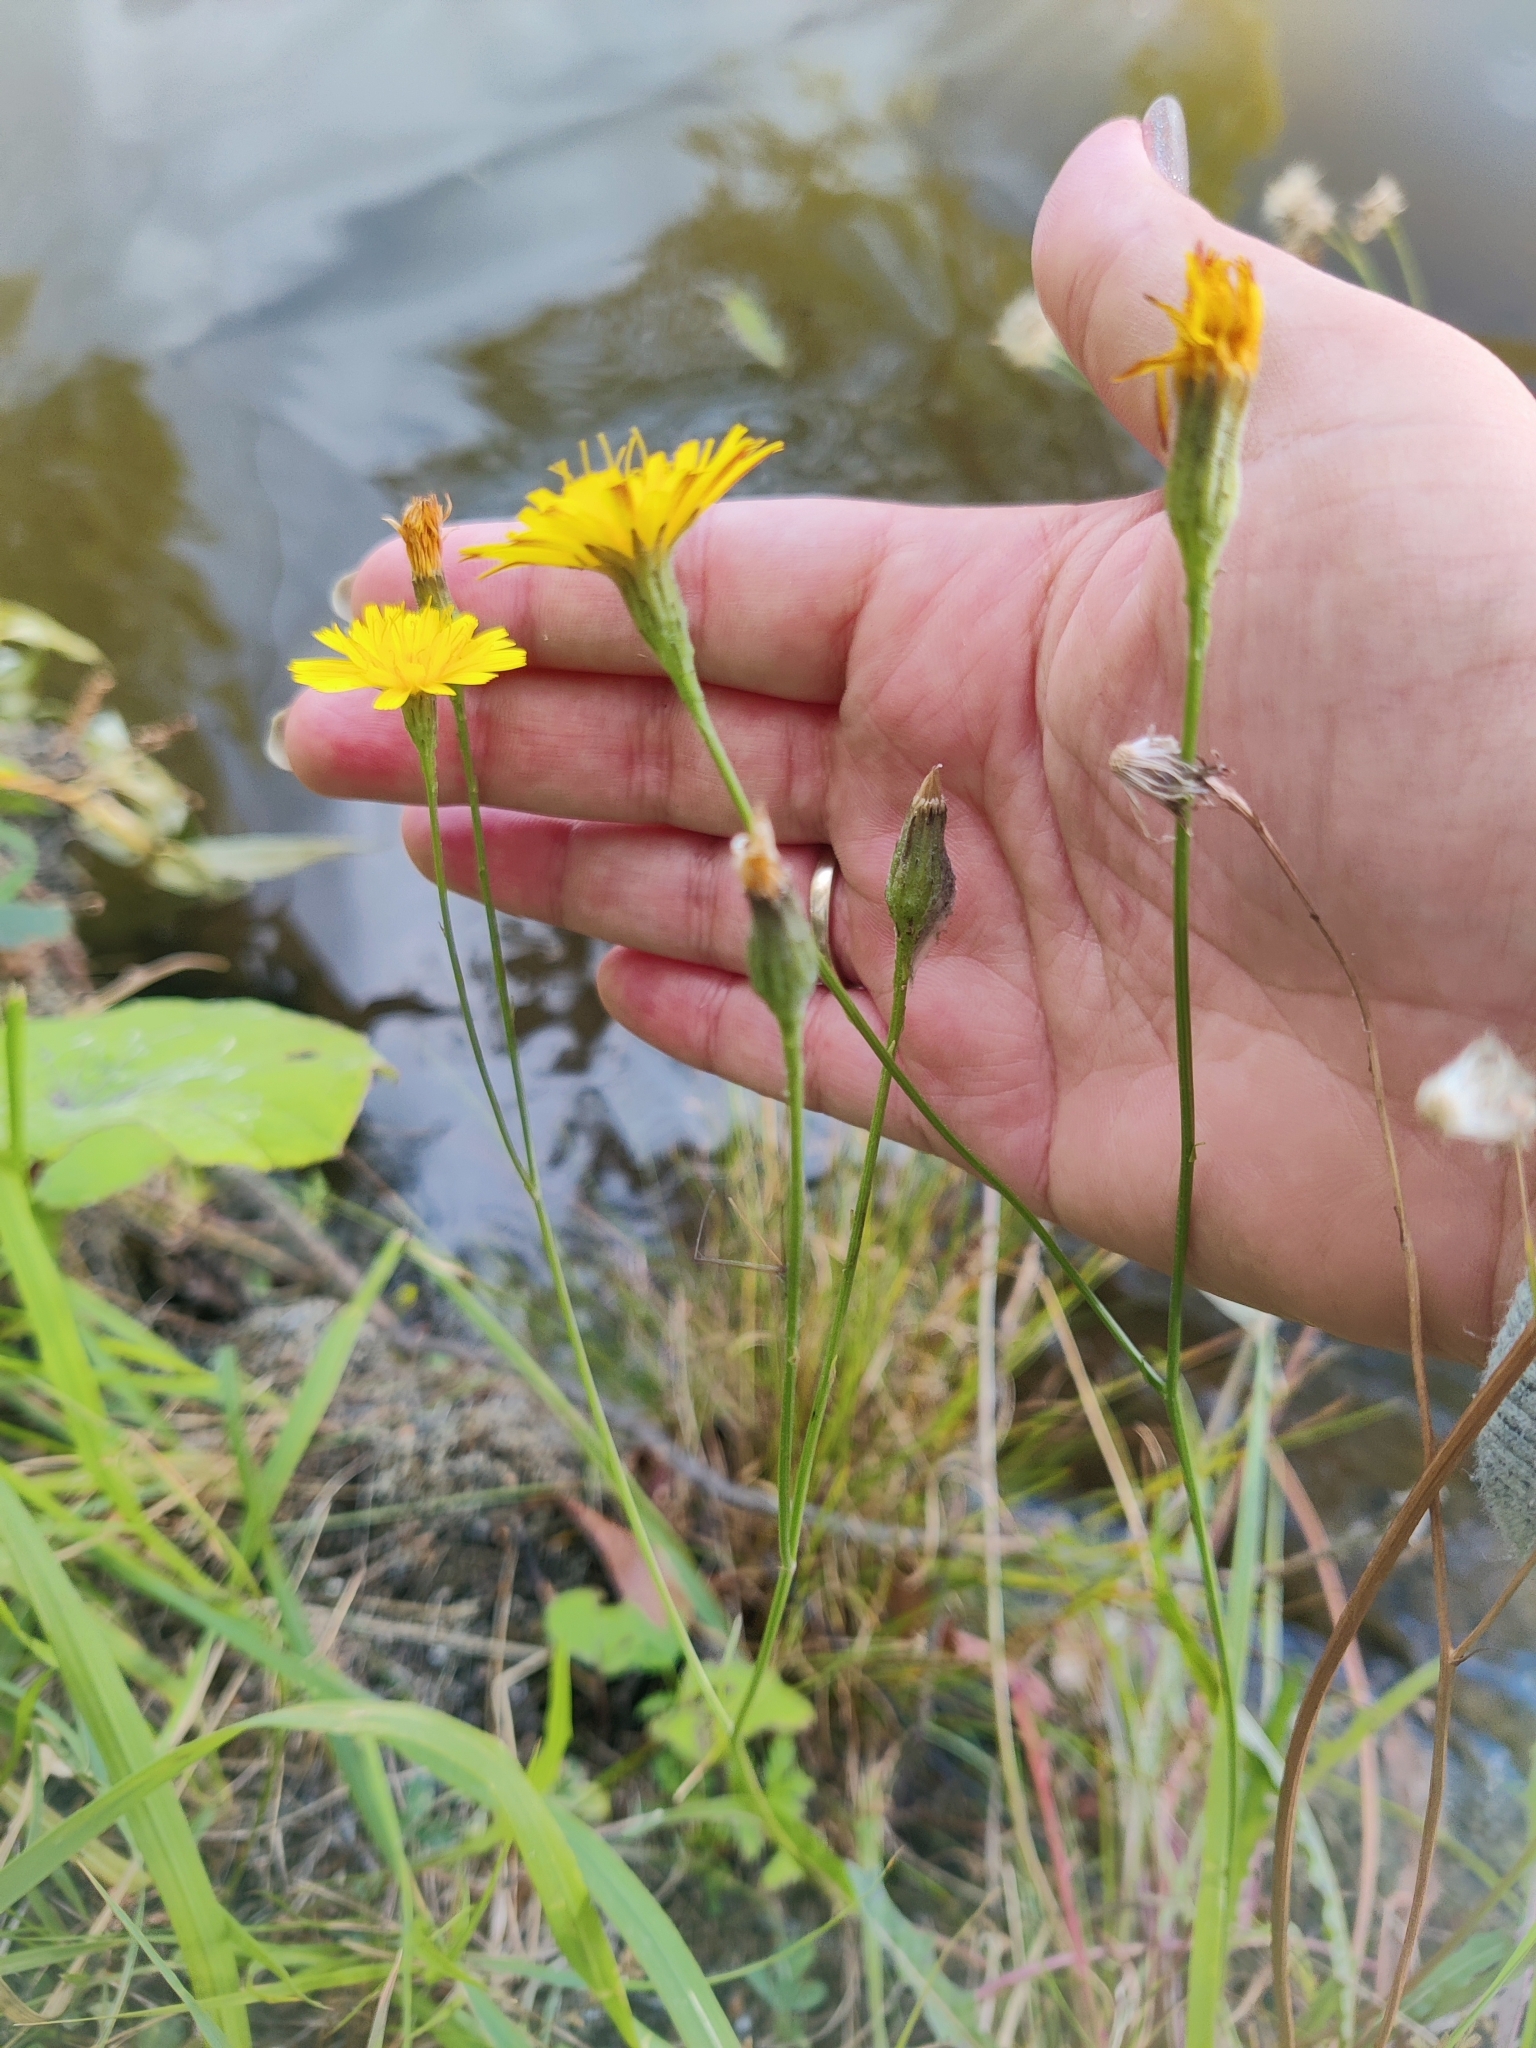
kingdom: Plantae
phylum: Tracheophyta
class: Magnoliopsida
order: Asterales
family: Asteraceae
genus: Scorzoneroides
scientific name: Scorzoneroides autumnalis
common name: Autumn hawkbit
